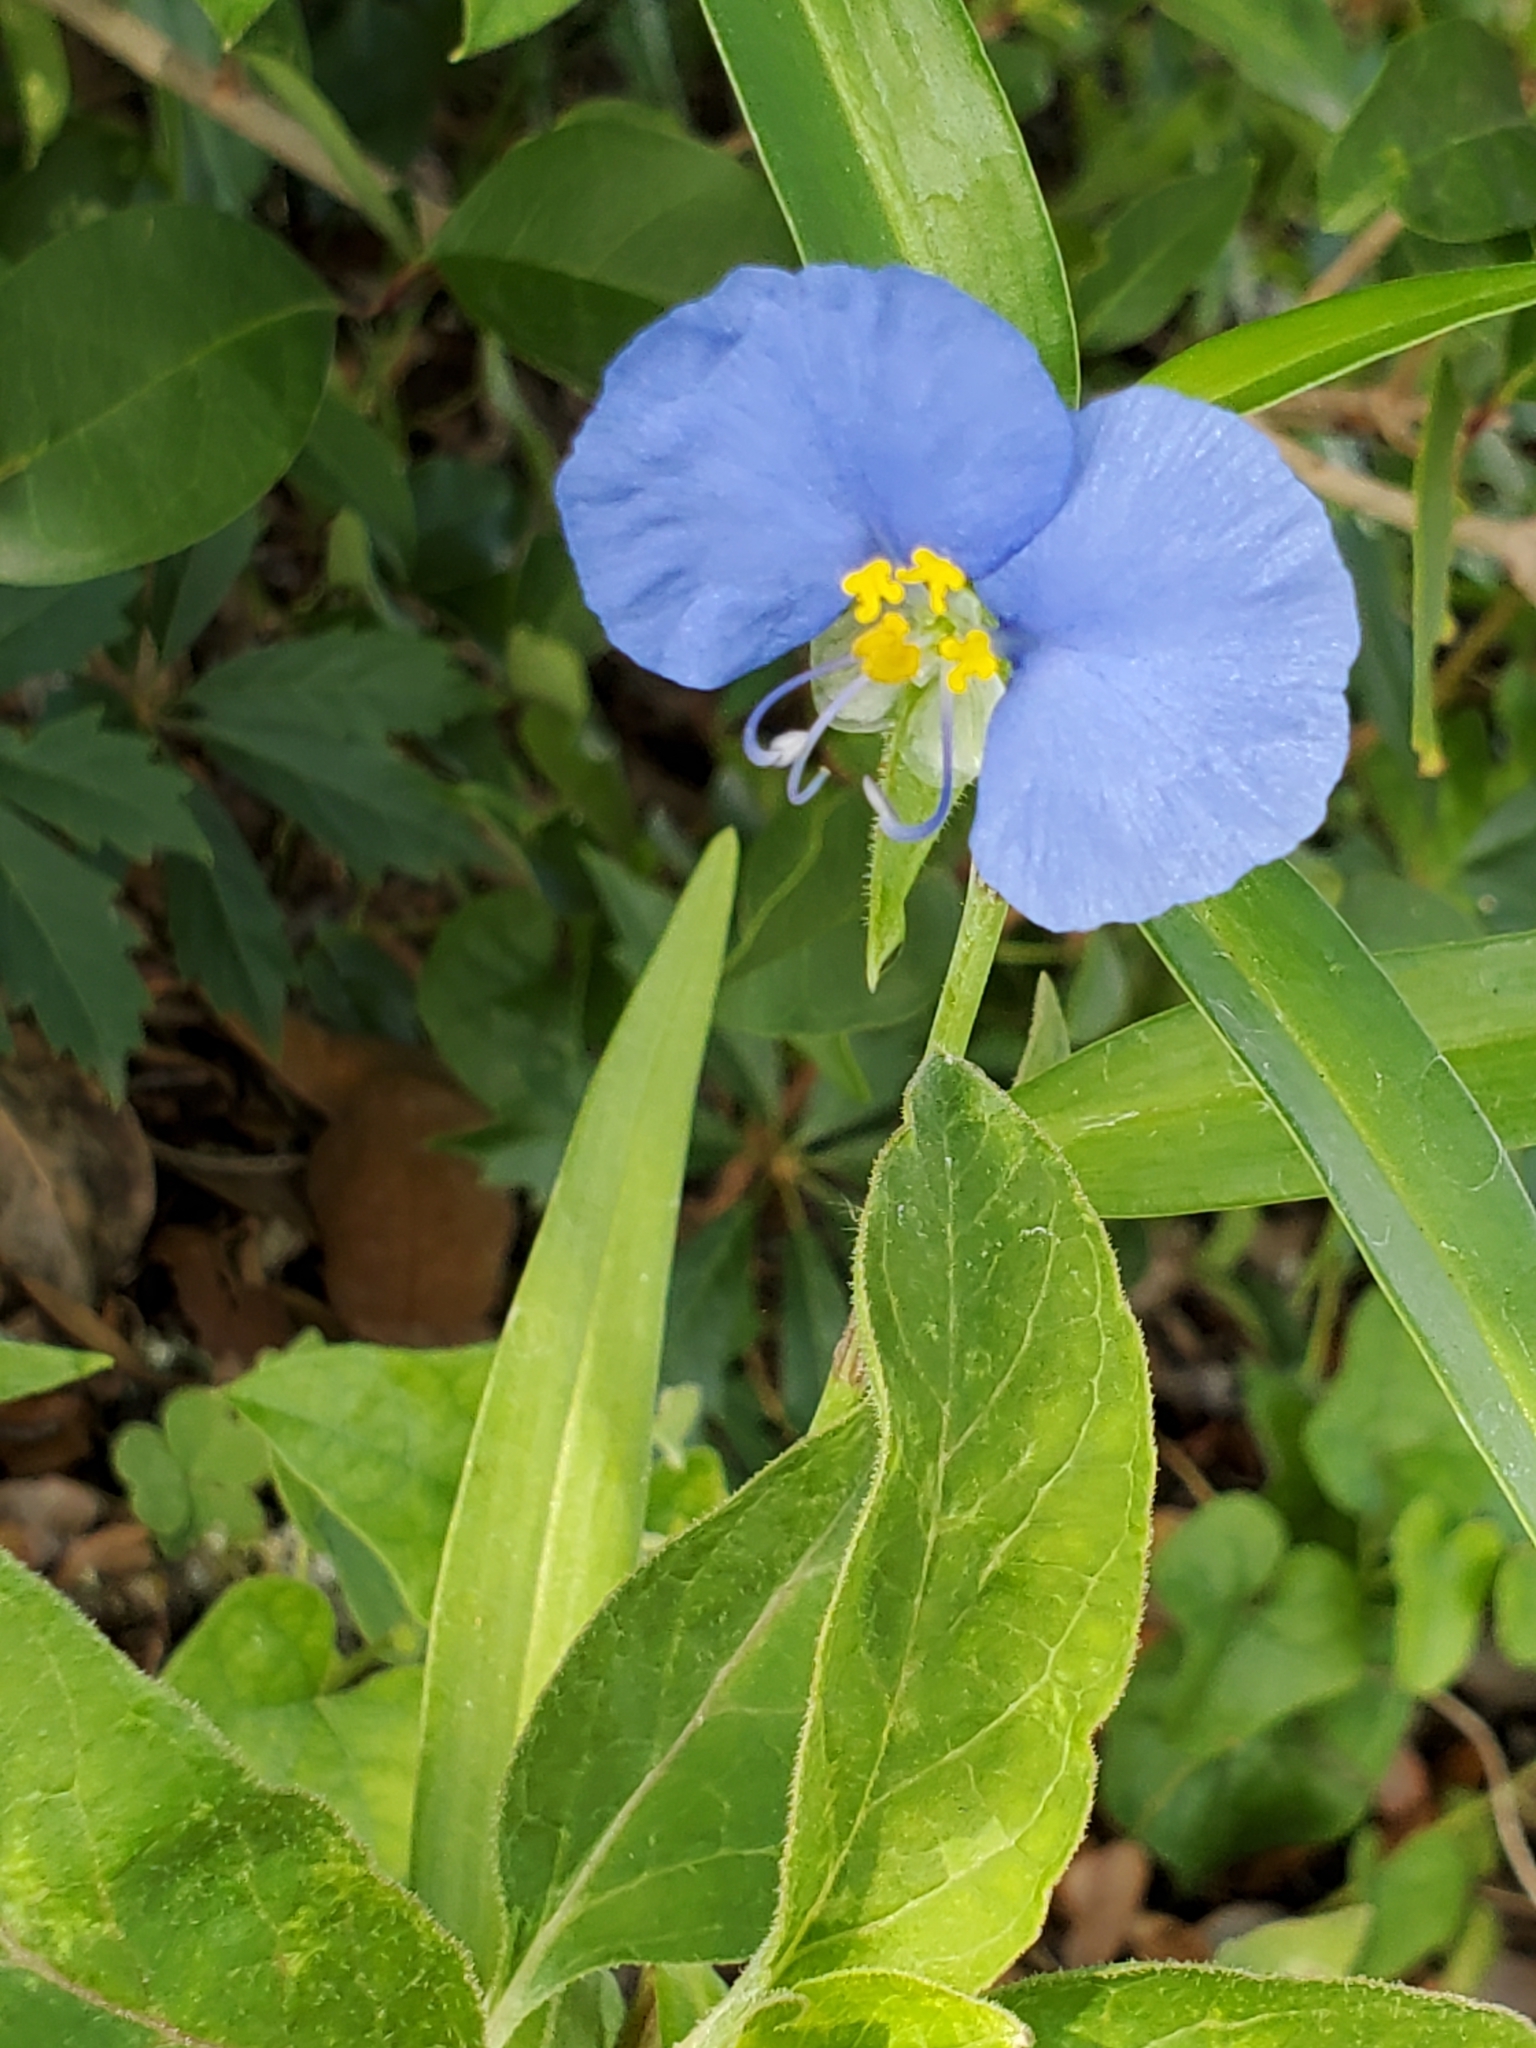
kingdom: Plantae
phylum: Tracheophyta
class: Liliopsida
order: Commelinales
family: Commelinaceae
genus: Commelina
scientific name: Commelina erecta
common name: Blousel blommetjie
